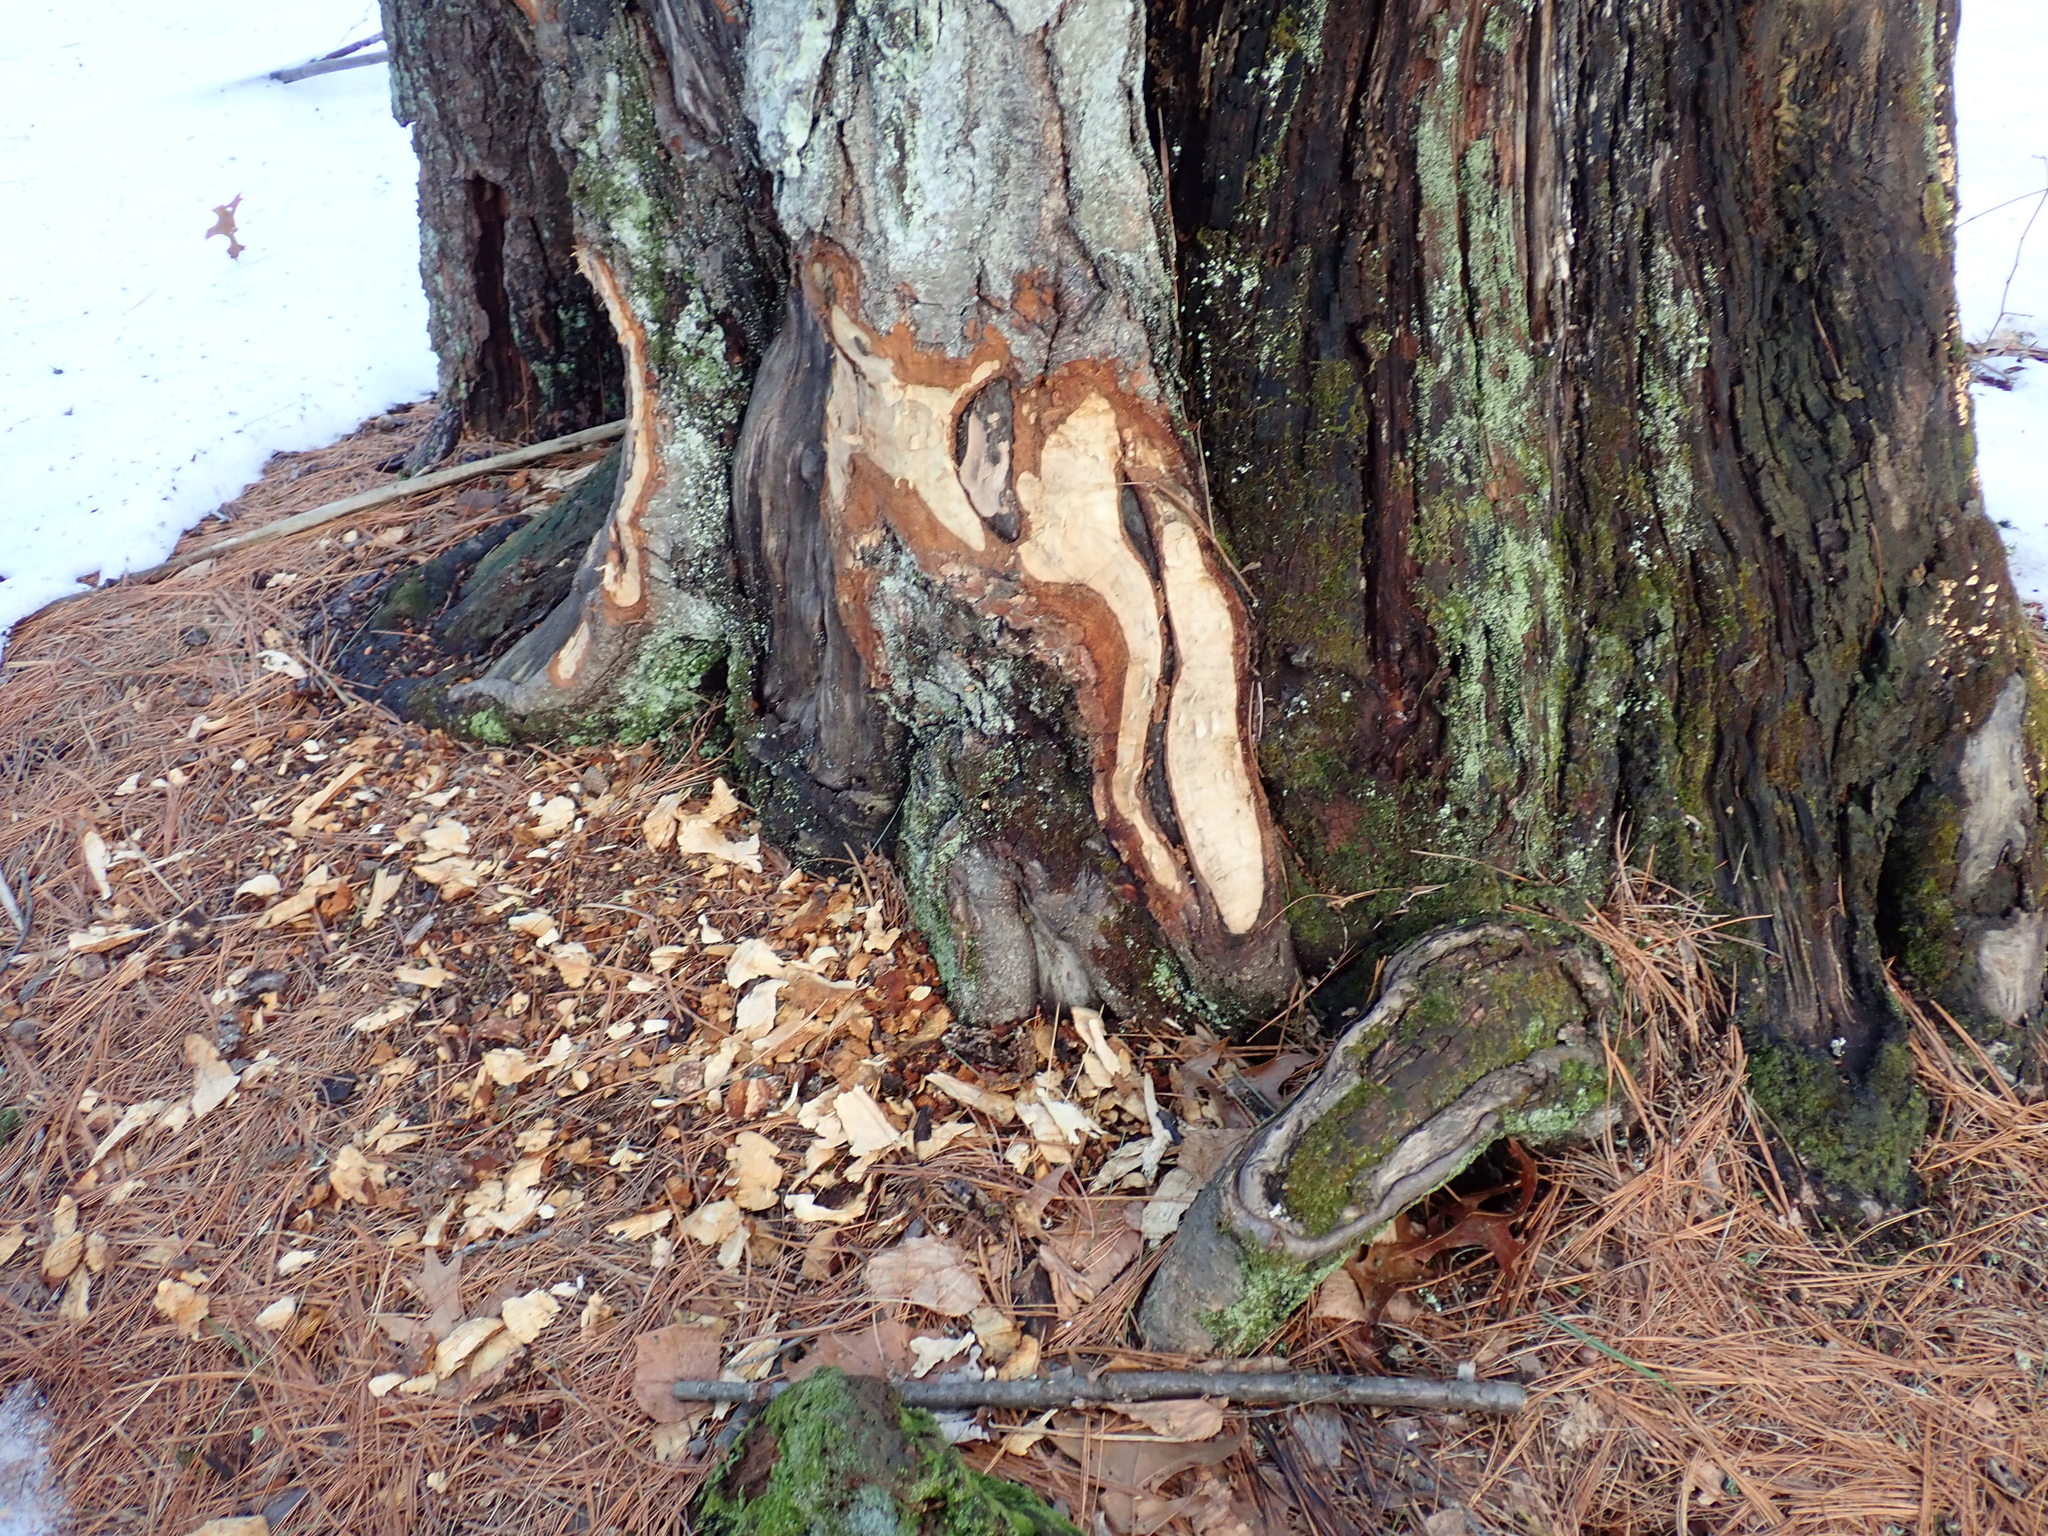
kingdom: Animalia
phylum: Chordata
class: Mammalia
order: Rodentia
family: Castoridae
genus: Castor
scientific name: Castor canadensis
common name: American beaver
